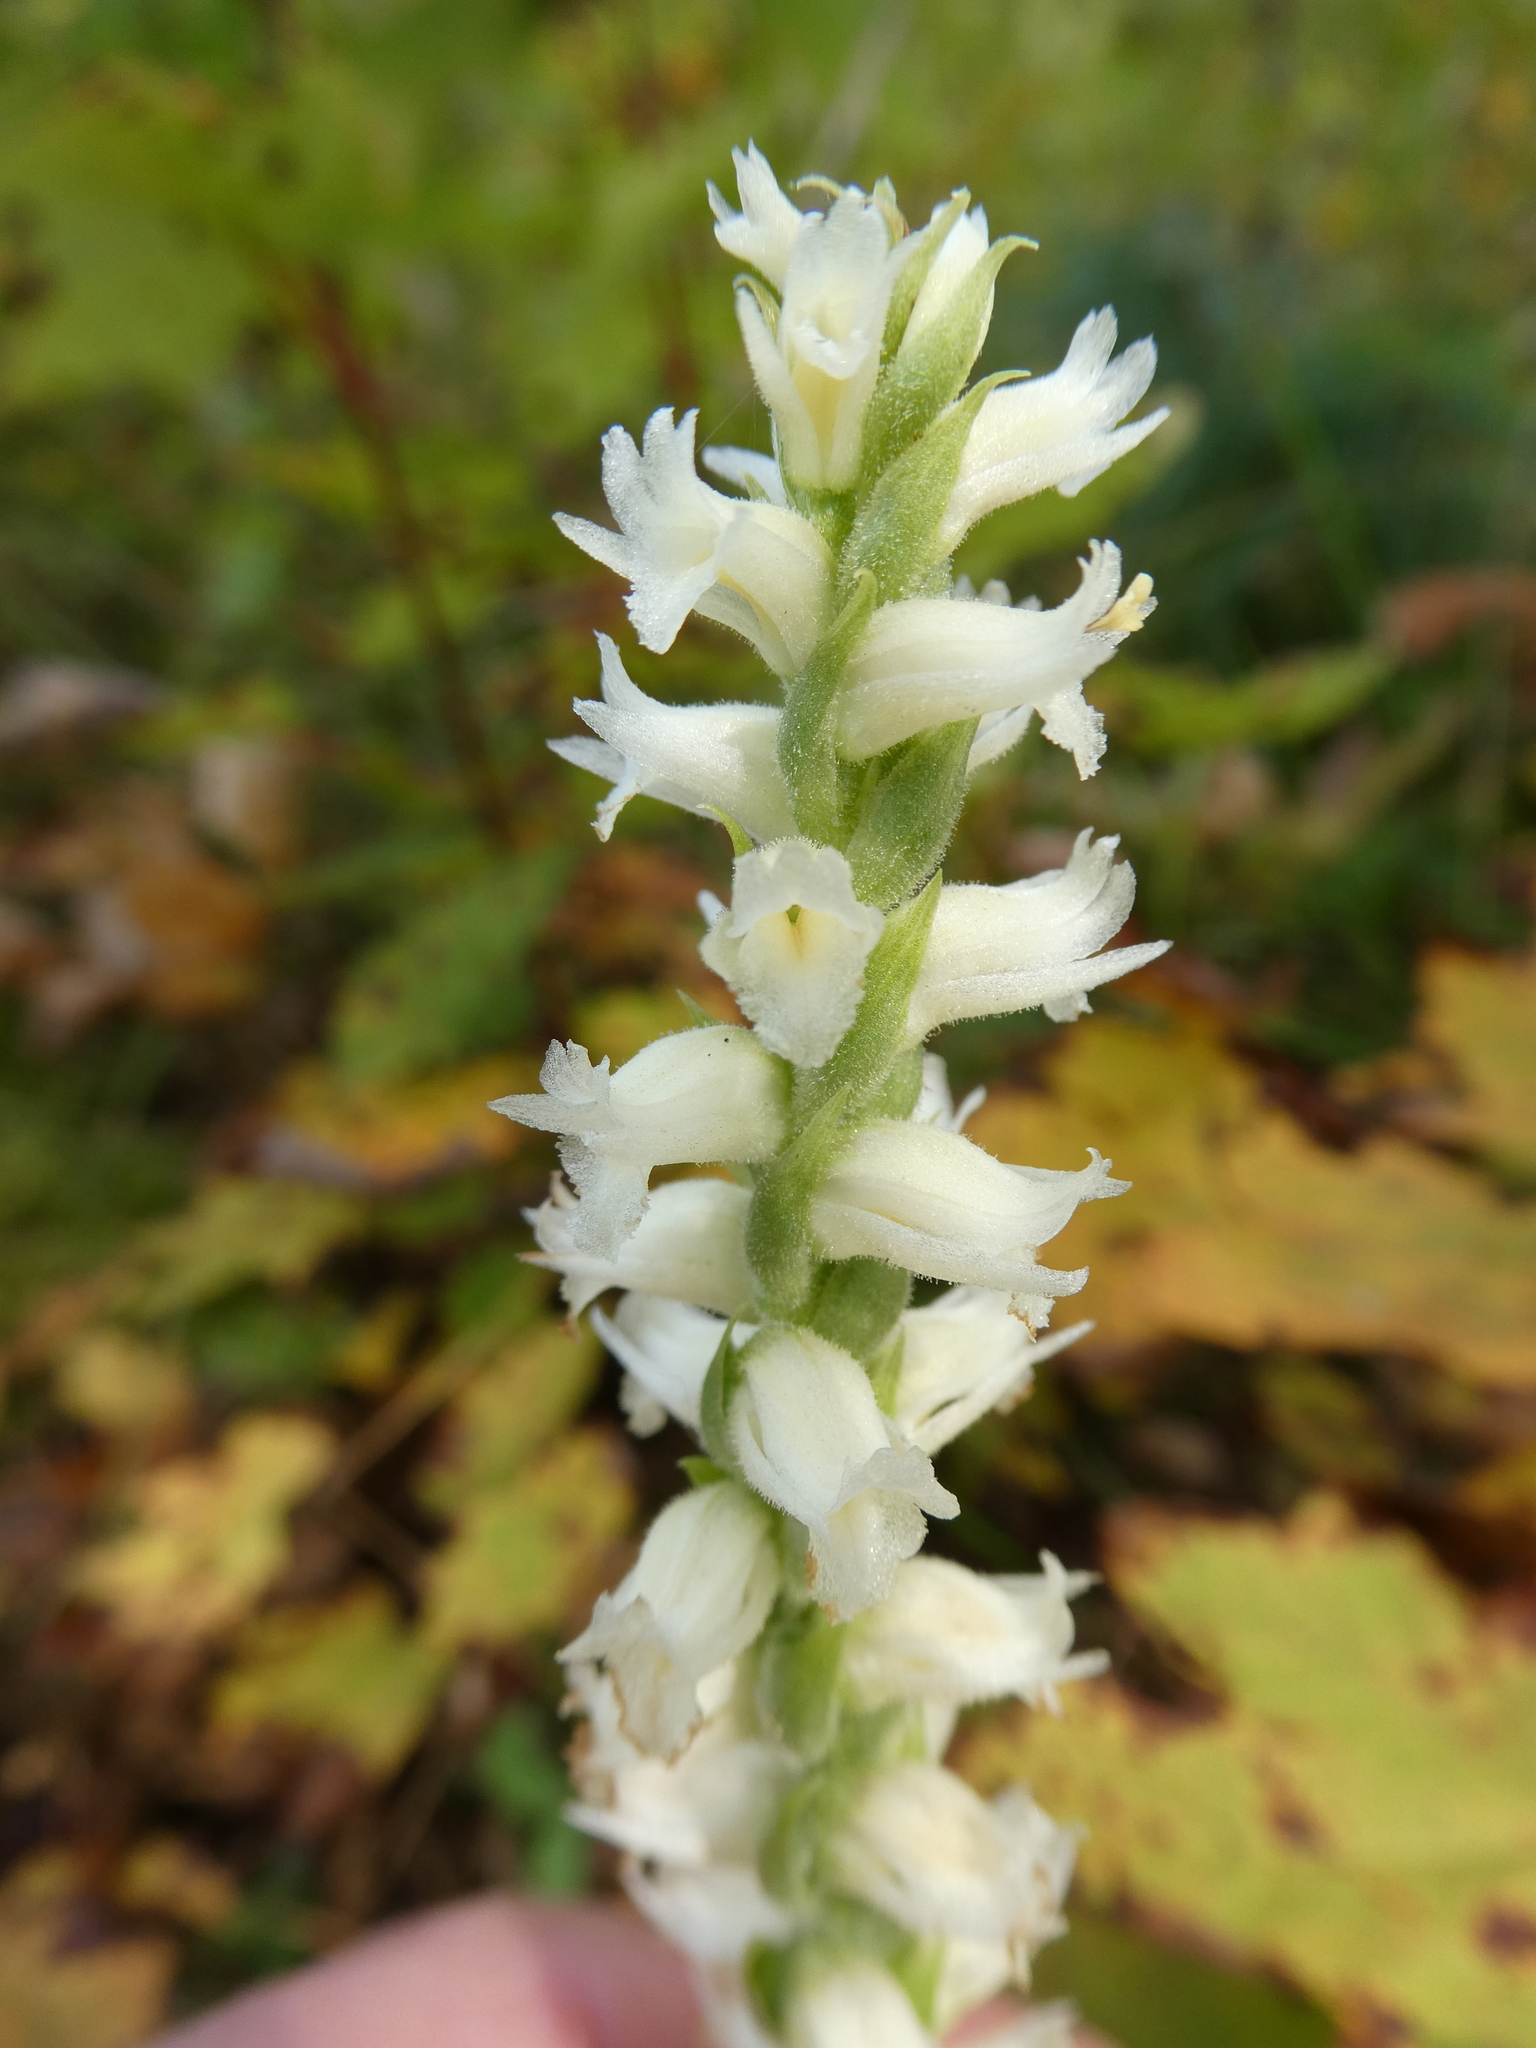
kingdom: Plantae
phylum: Tracheophyta
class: Liliopsida
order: Asparagales
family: Orchidaceae
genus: Spiranthes
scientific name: Spiranthes ochroleuca
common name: Yellow ladies'-tresses
